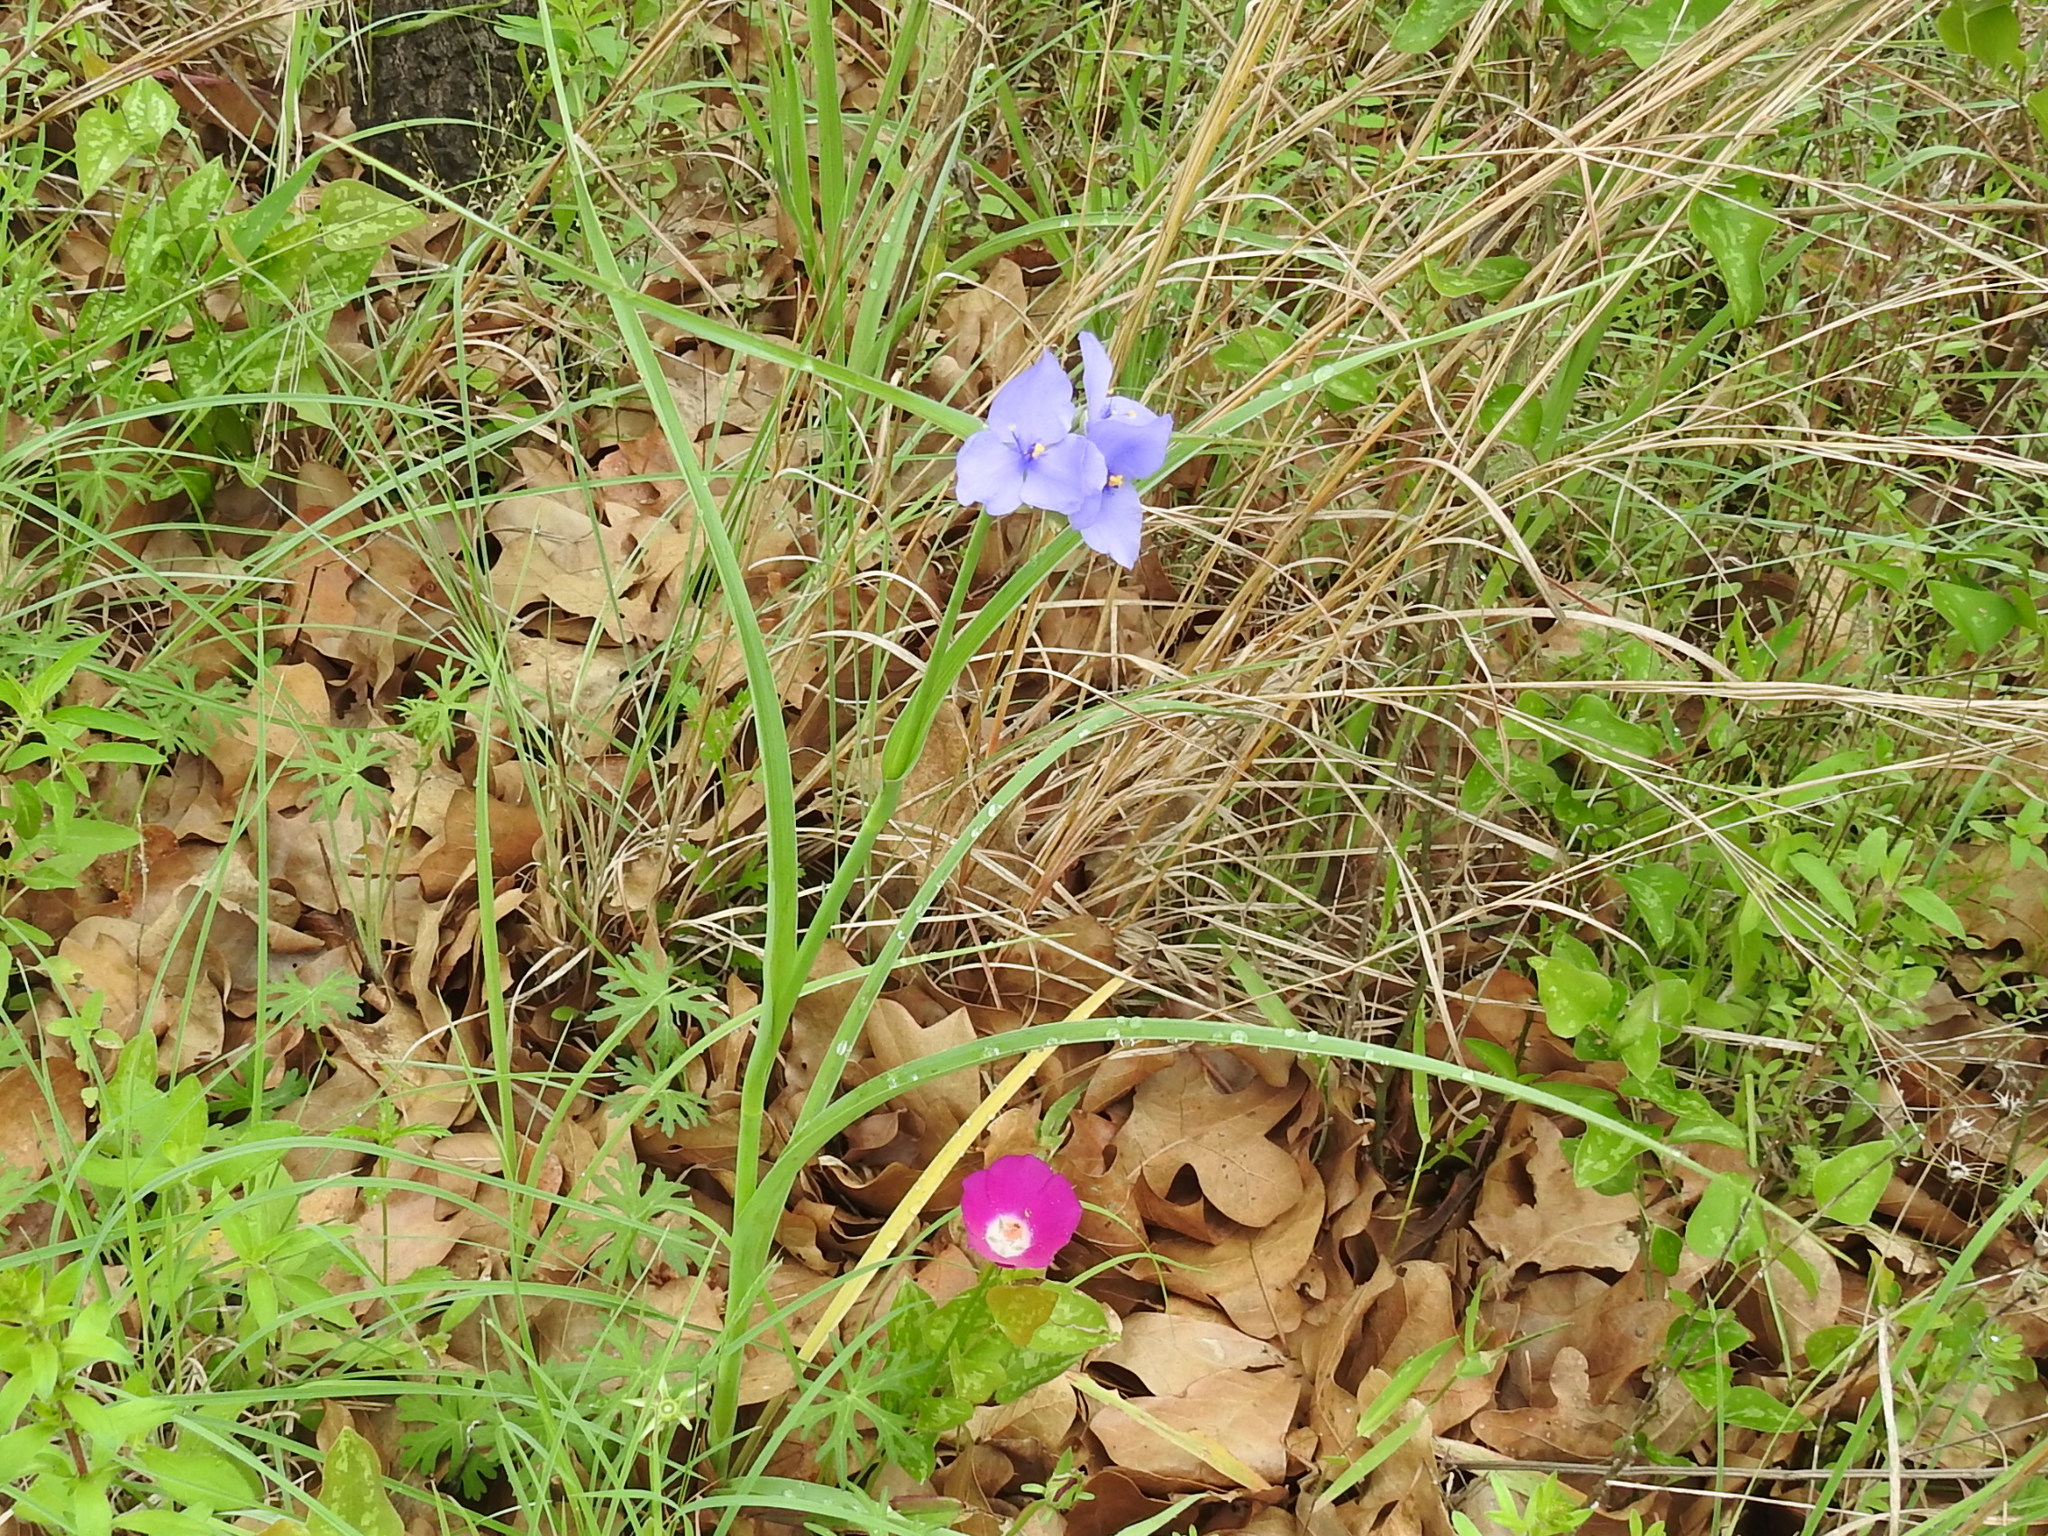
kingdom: Plantae
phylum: Tracheophyta
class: Liliopsida
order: Commelinales
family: Commelinaceae
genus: Tradescantia
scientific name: Tradescantia ohiensis
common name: Ohio spiderwort
